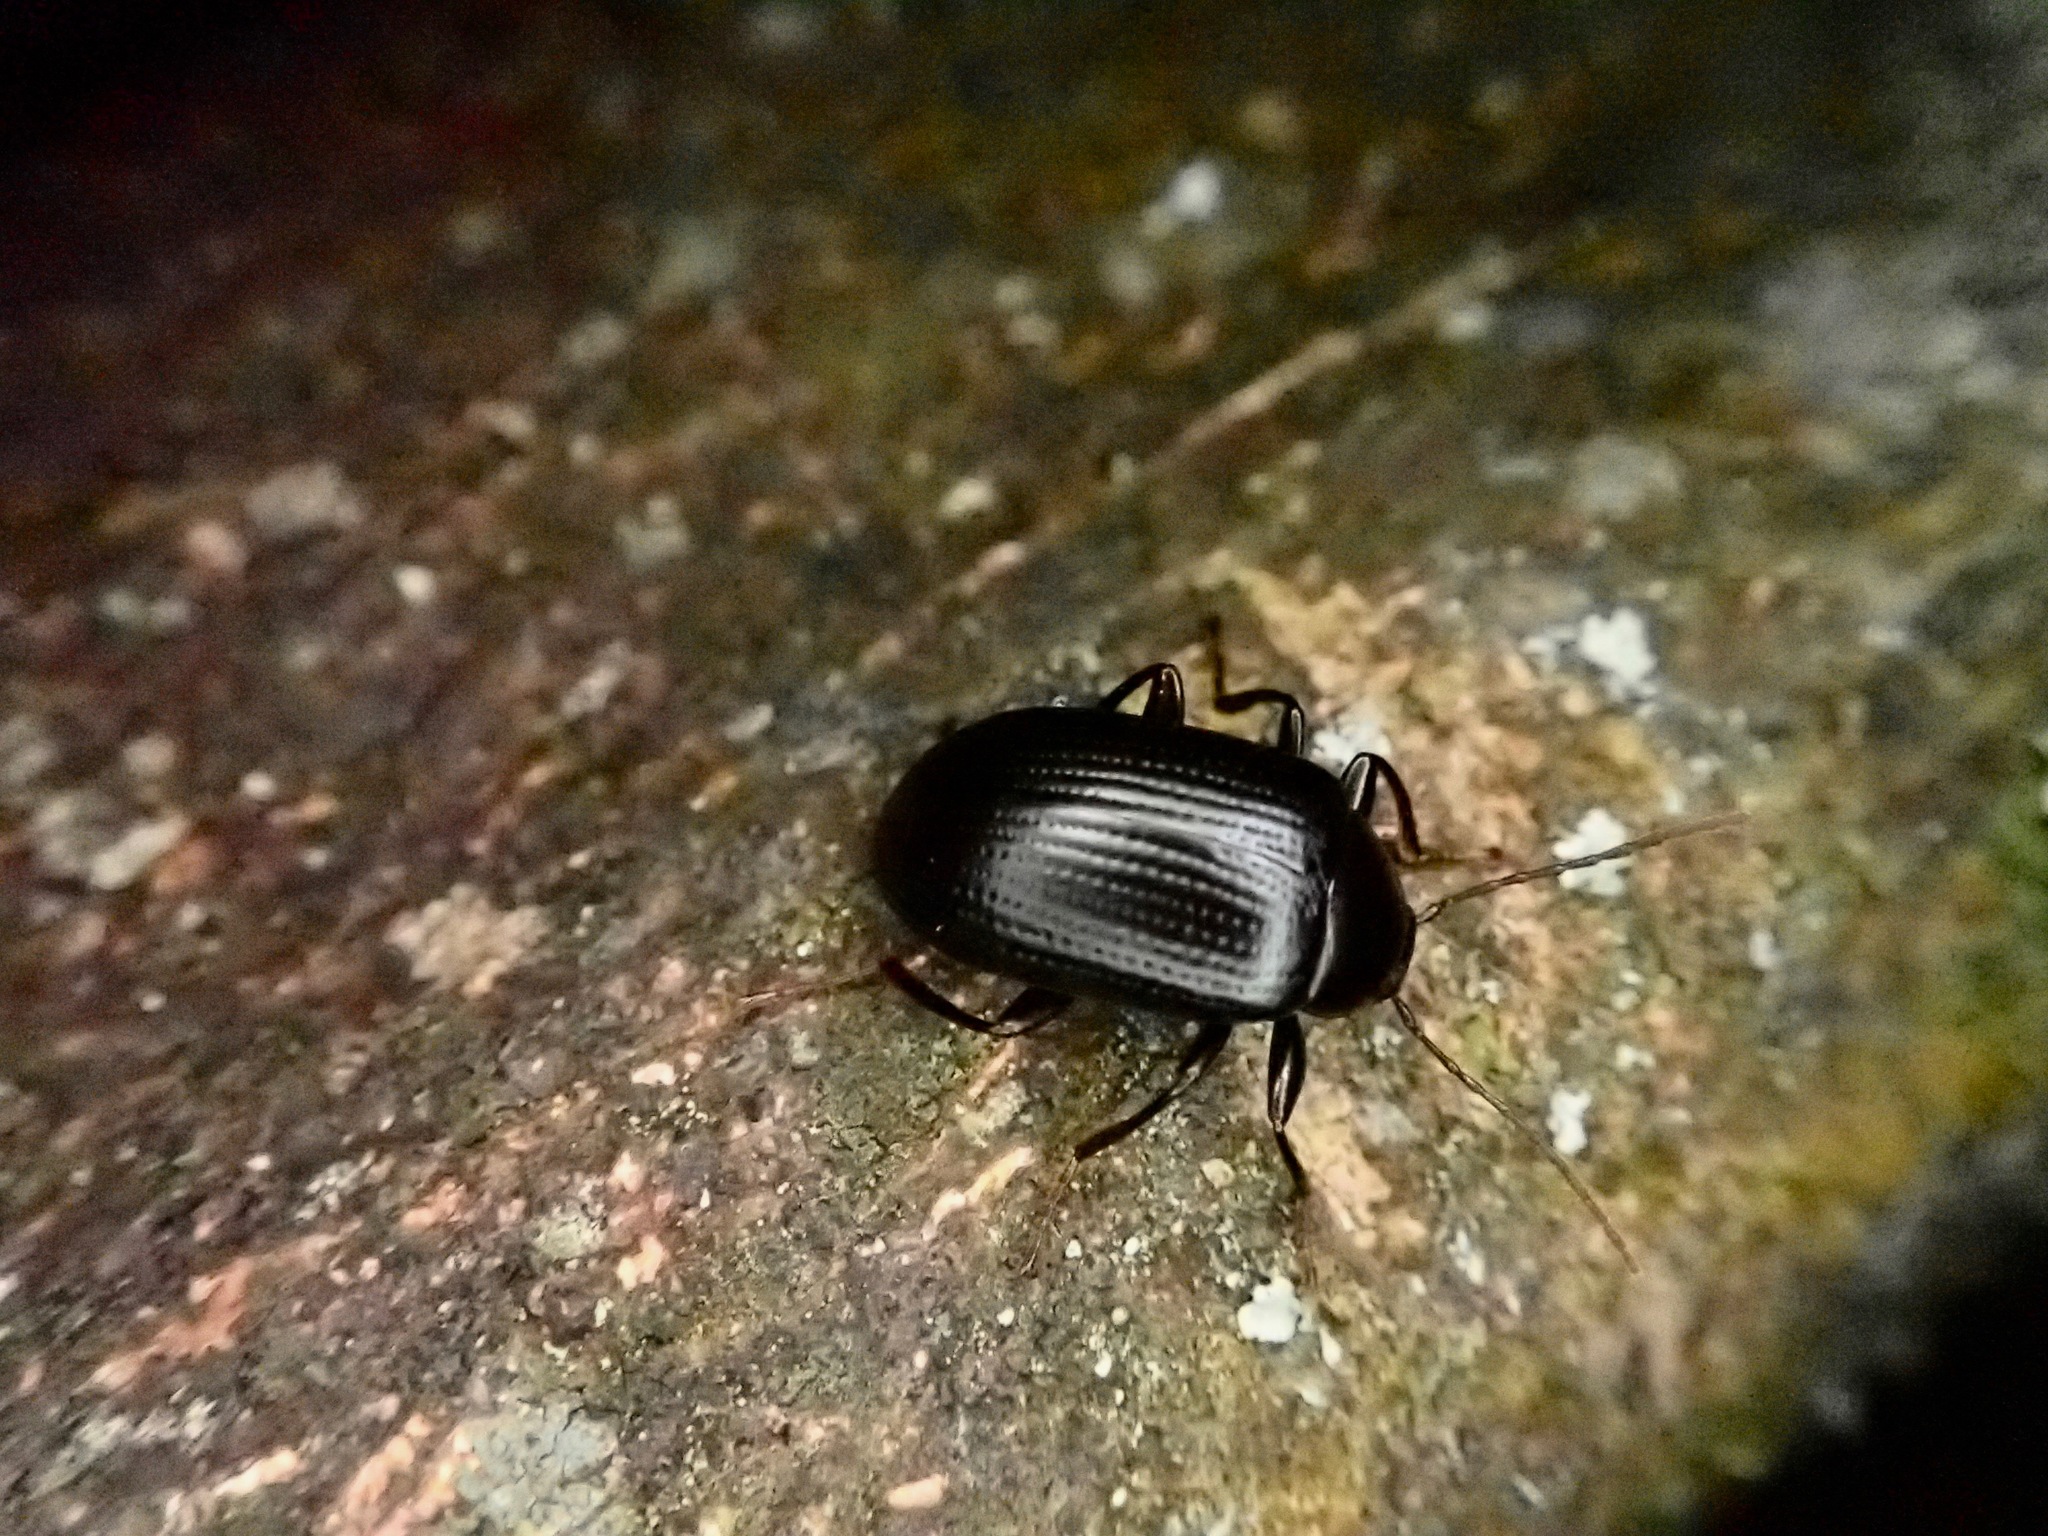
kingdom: Animalia
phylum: Arthropoda
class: Insecta
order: Coleoptera
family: Tenebrionidae
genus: Amarygmus
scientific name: Amarygmus
